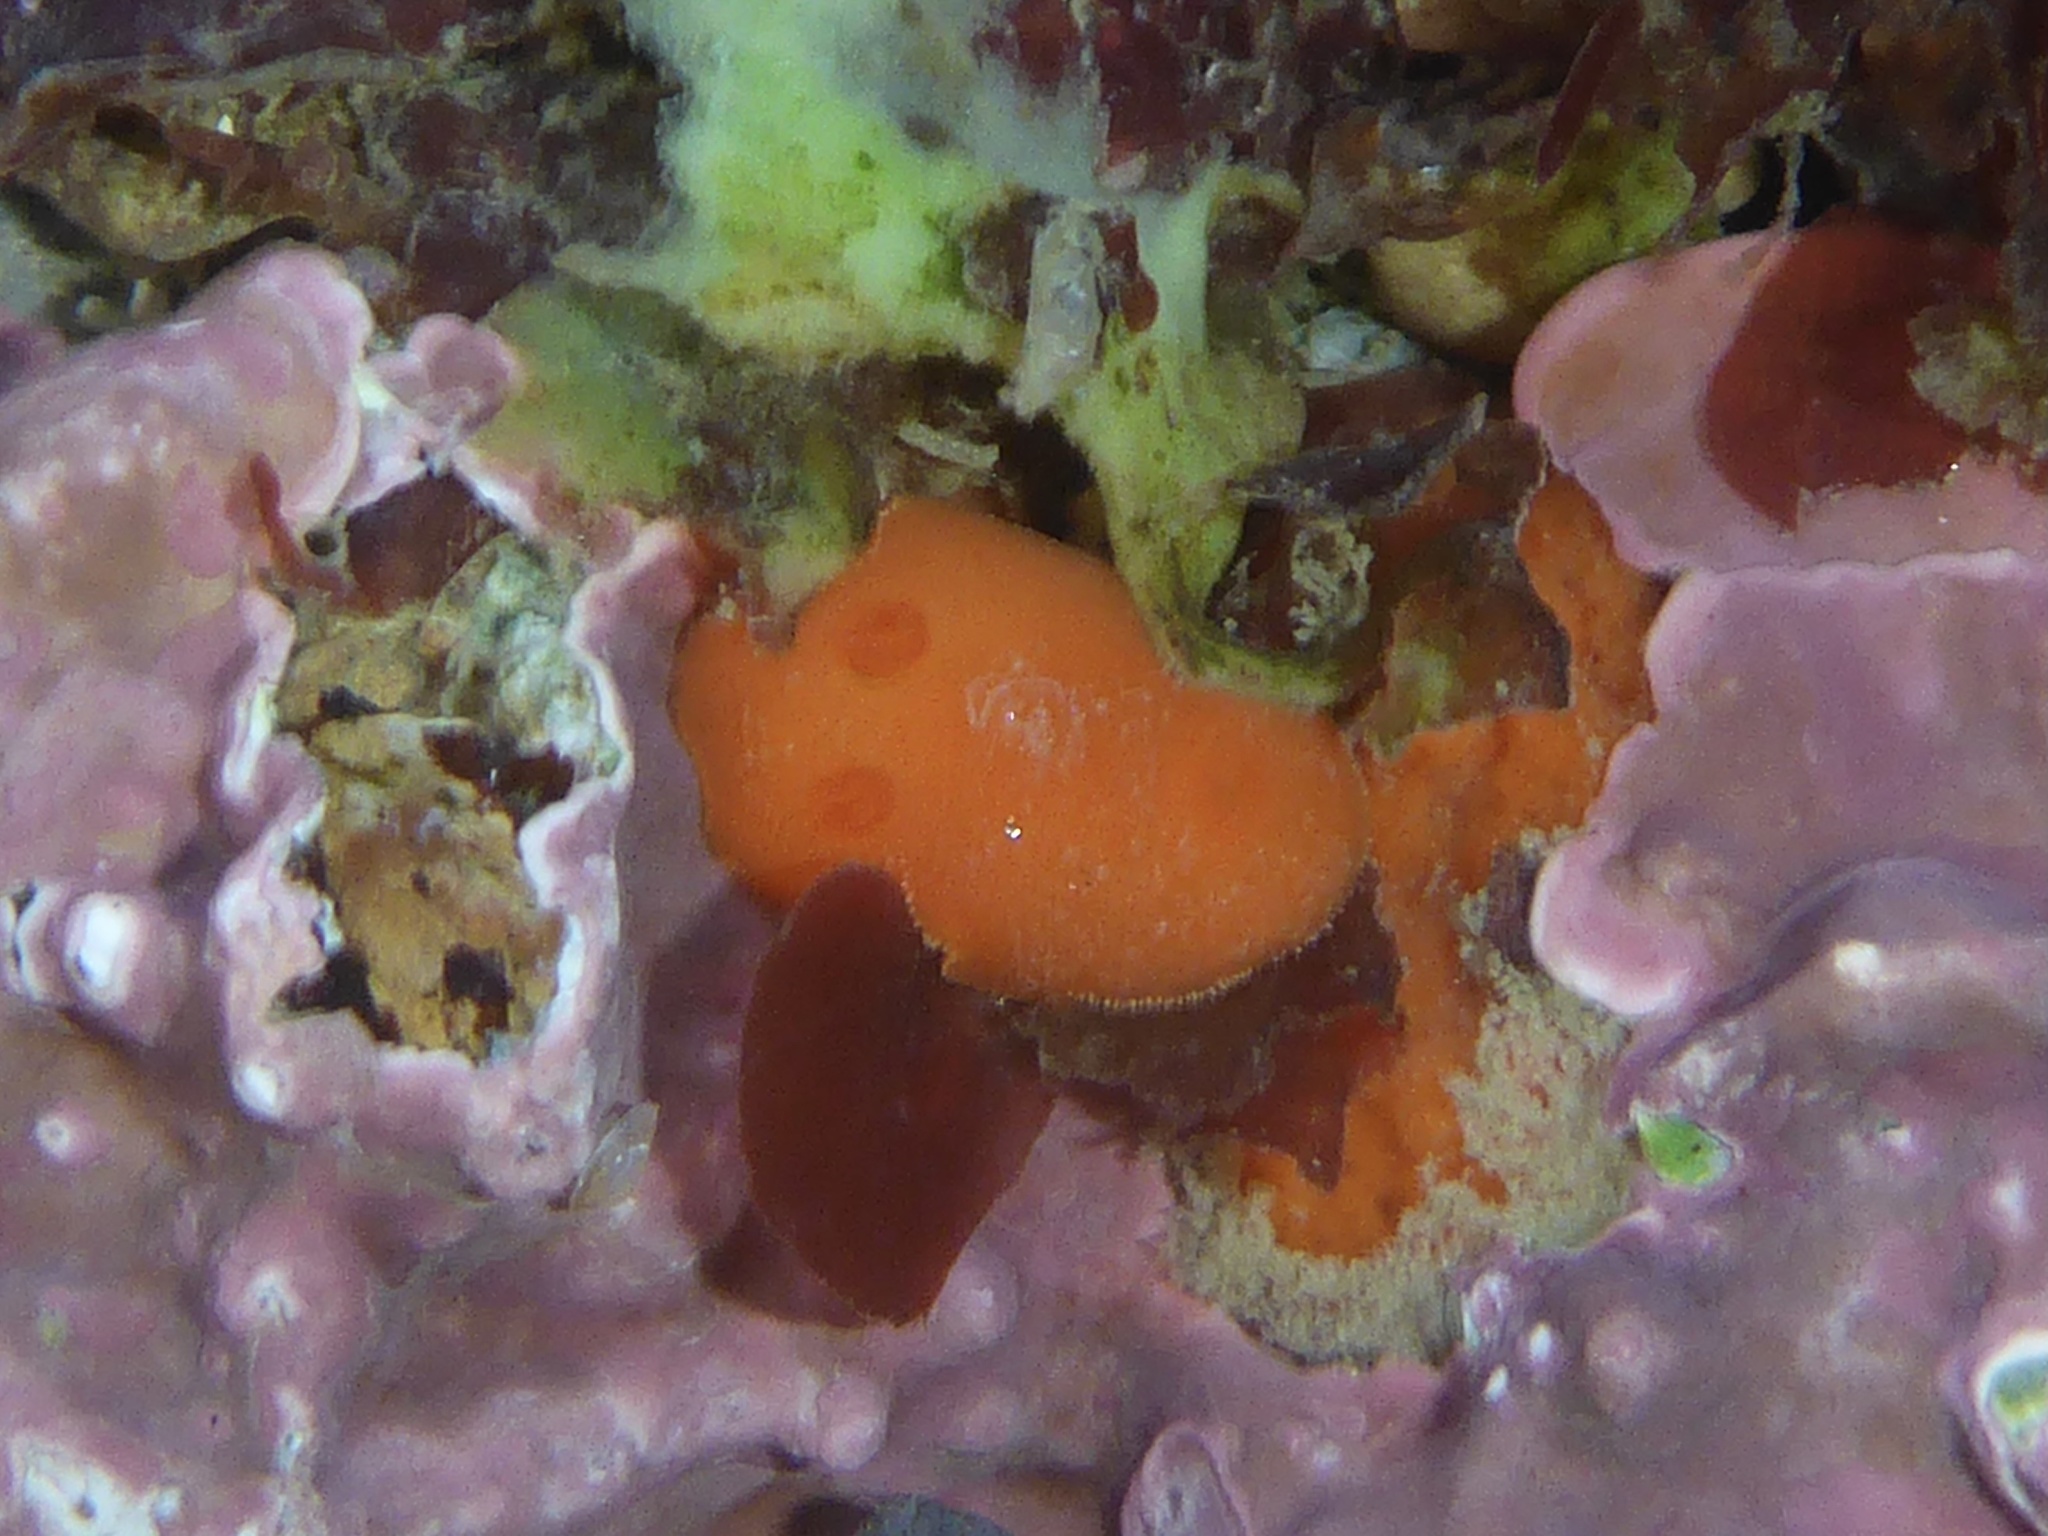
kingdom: Animalia
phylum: Mollusca
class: Gastropoda
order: Nudibranchia
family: Discodorididae
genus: Rostanga
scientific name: Rostanga pulchra
